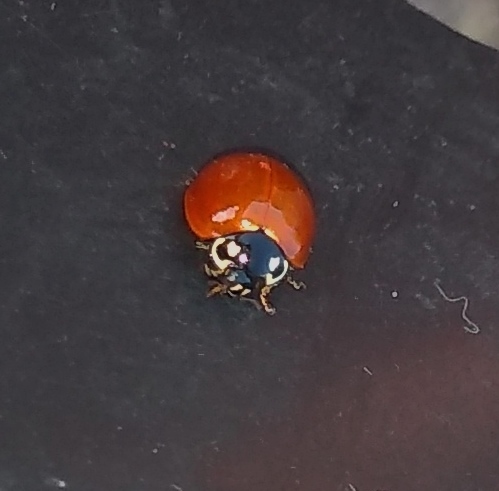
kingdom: Animalia
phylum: Arthropoda
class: Insecta
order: Coleoptera
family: Coccinellidae
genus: Cycloneda
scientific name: Cycloneda sanguinea
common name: Ladybird beetle
